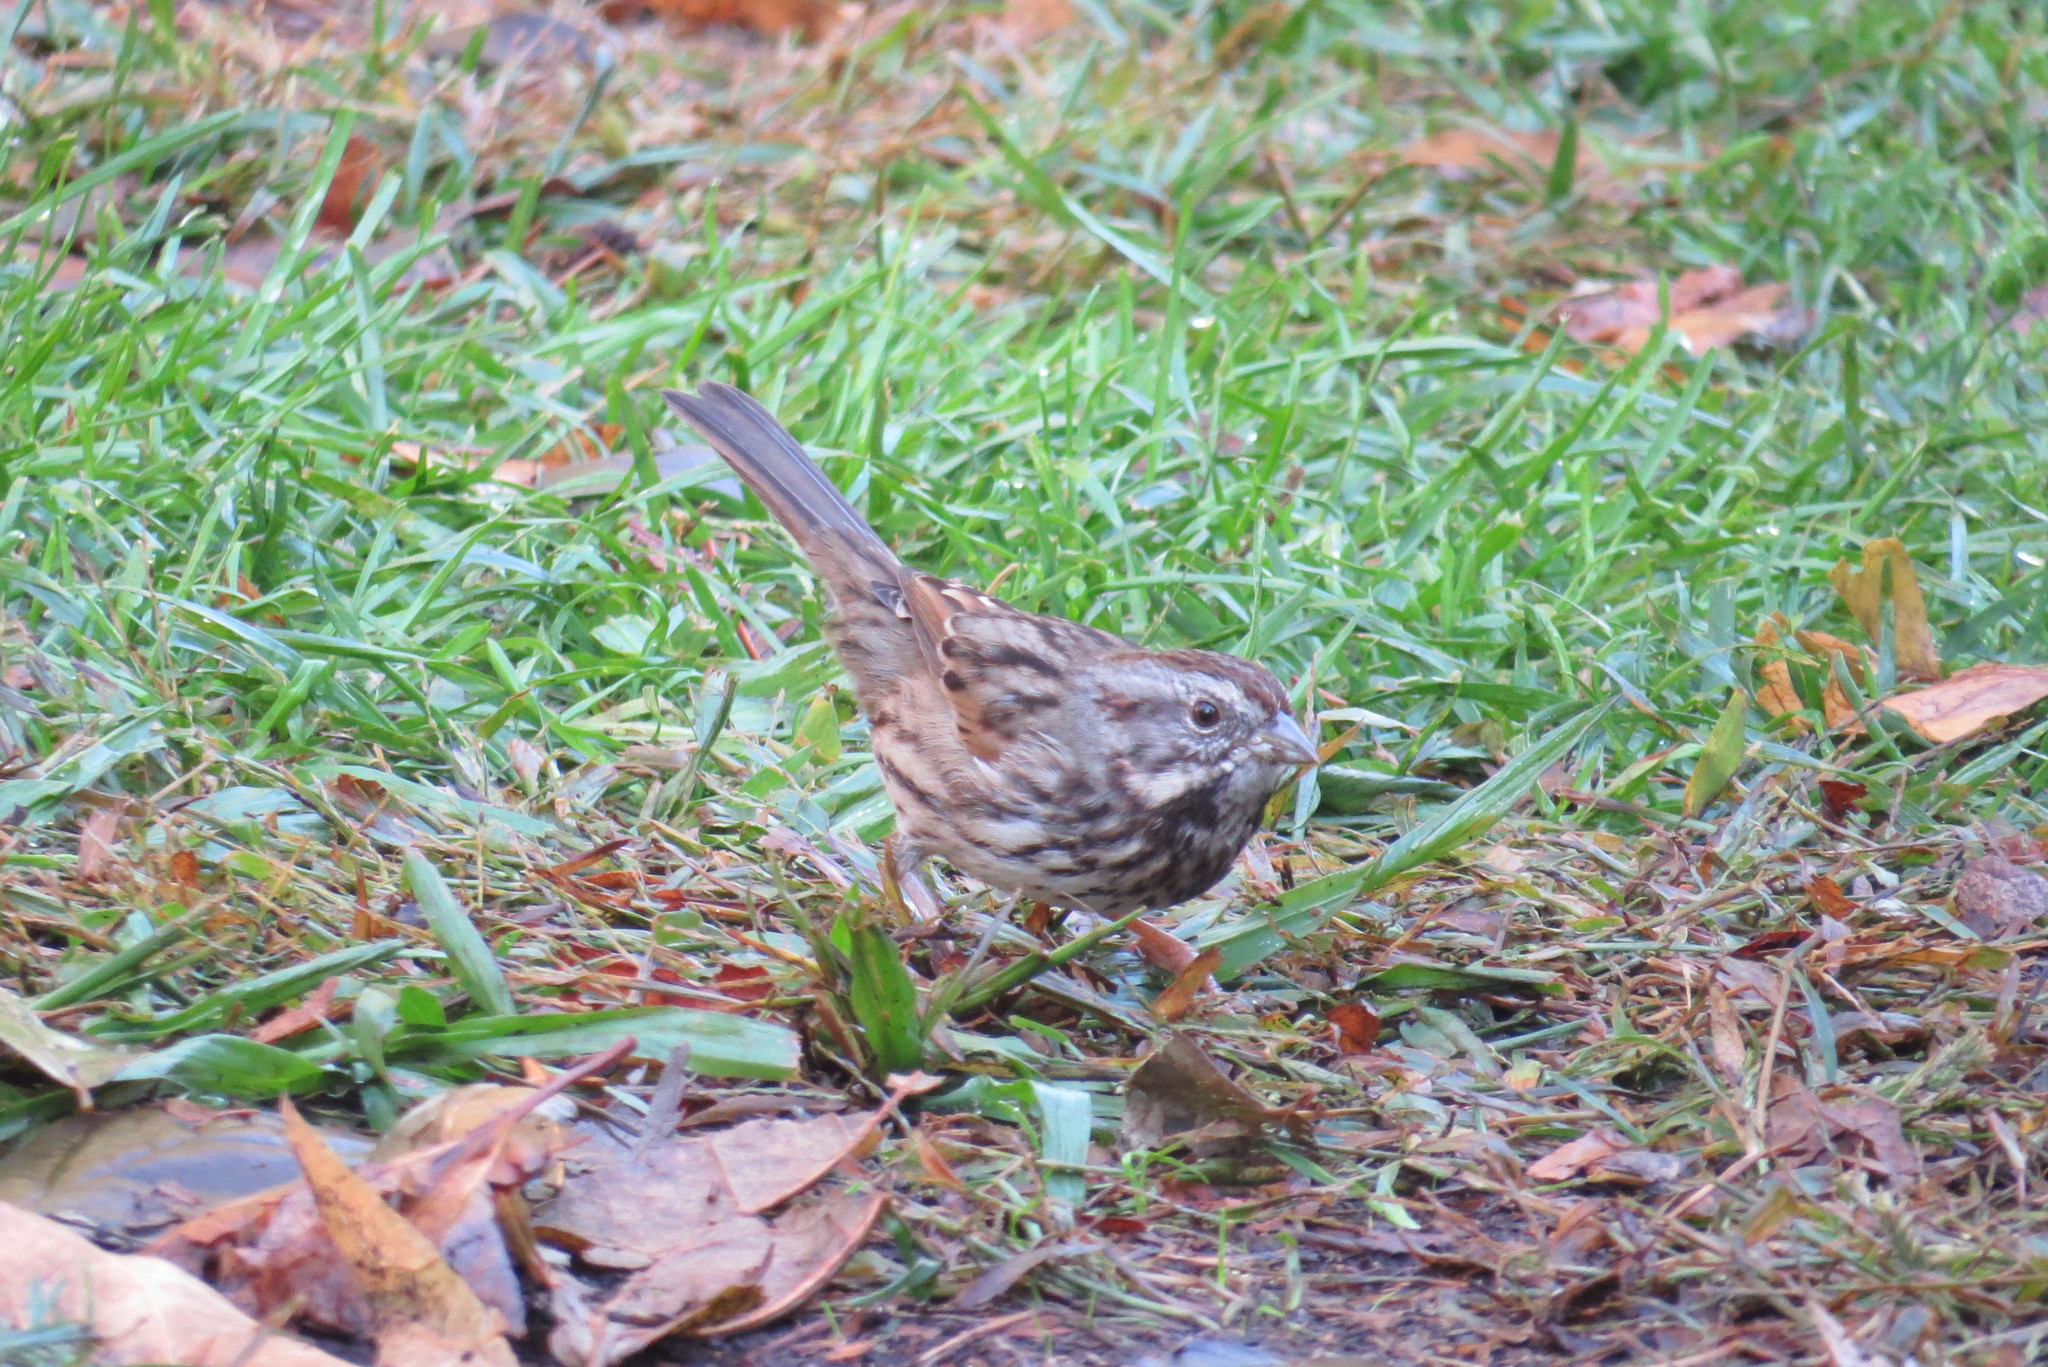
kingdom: Animalia
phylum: Chordata
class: Aves
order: Passeriformes
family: Passerellidae
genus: Melospiza
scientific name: Melospiza melodia
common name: Song sparrow
